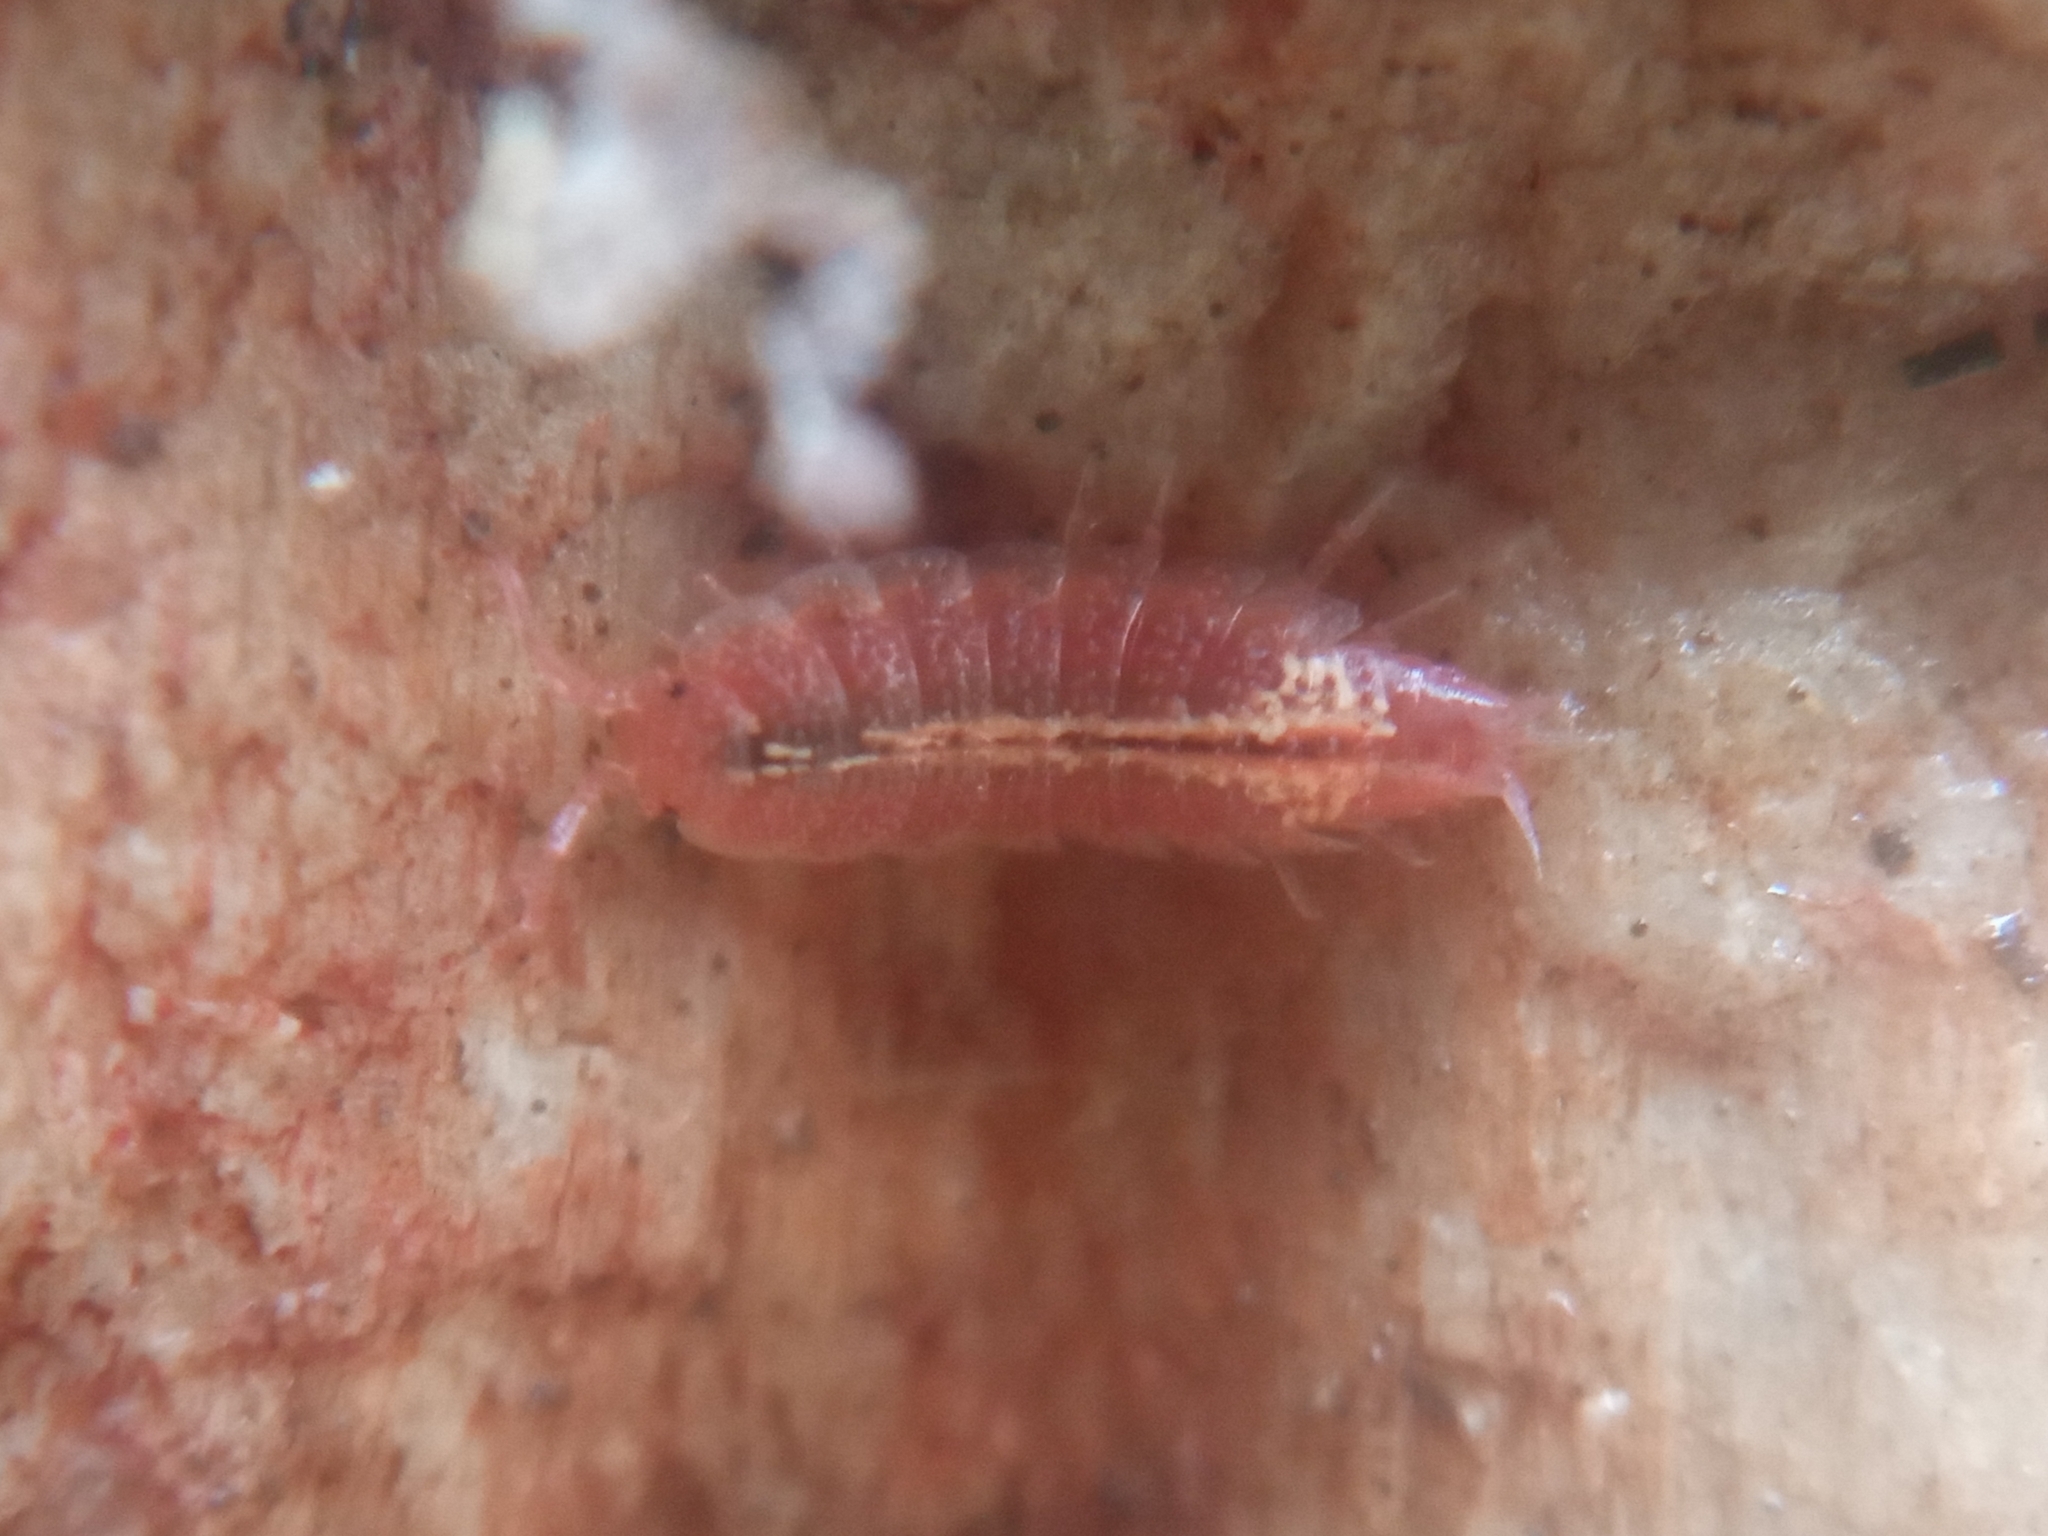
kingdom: Animalia
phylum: Arthropoda
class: Malacostraca
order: Isopoda
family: Trichoniscidae
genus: Androniscus
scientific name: Androniscus dentiger
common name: Rosy woodlouse
